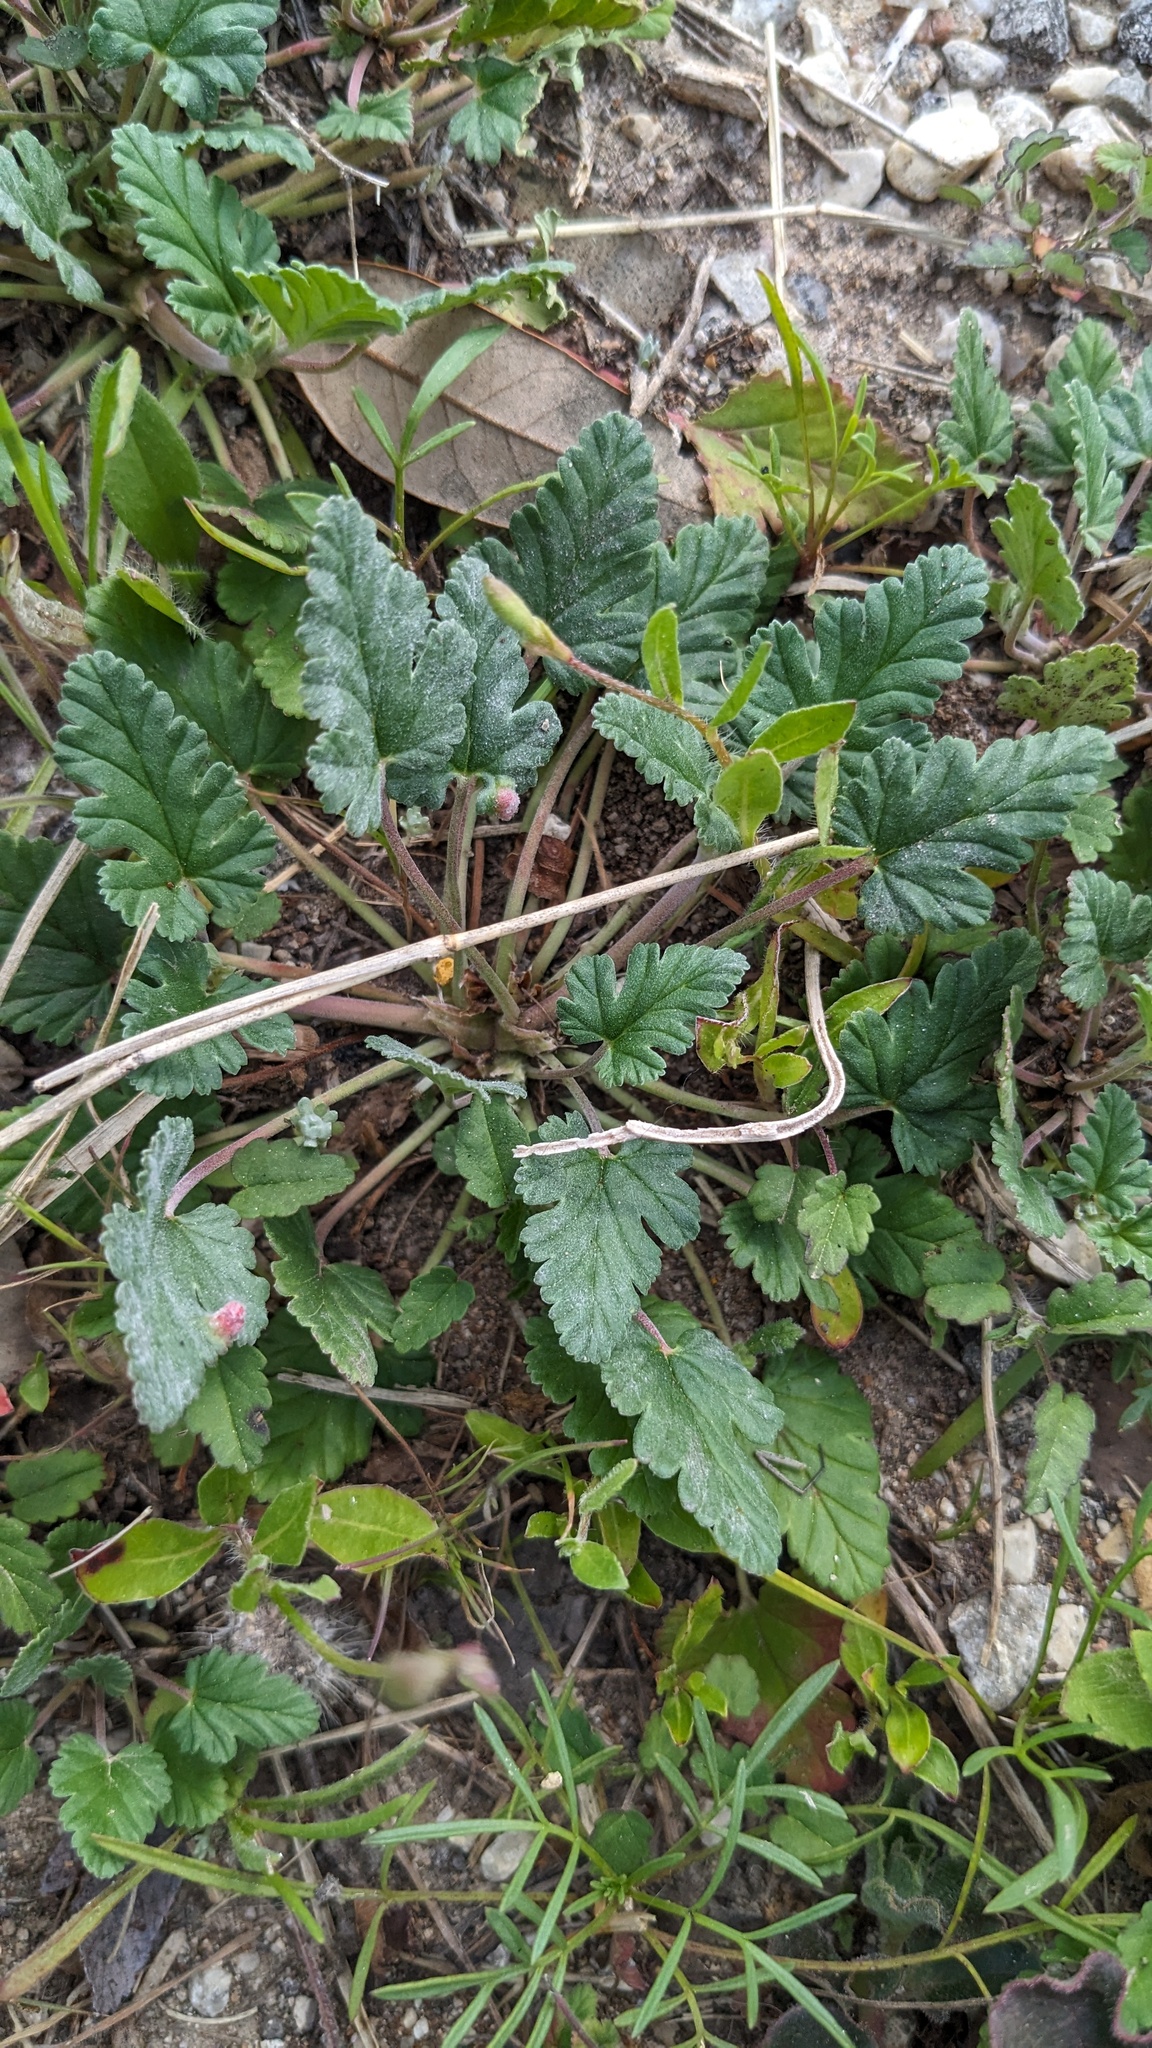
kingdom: Plantae
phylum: Tracheophyta
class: Magnoliopsida
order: Geraniales
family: Geraniaceae
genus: Erodium
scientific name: Erodium texanum
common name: Texas stork's-bill
